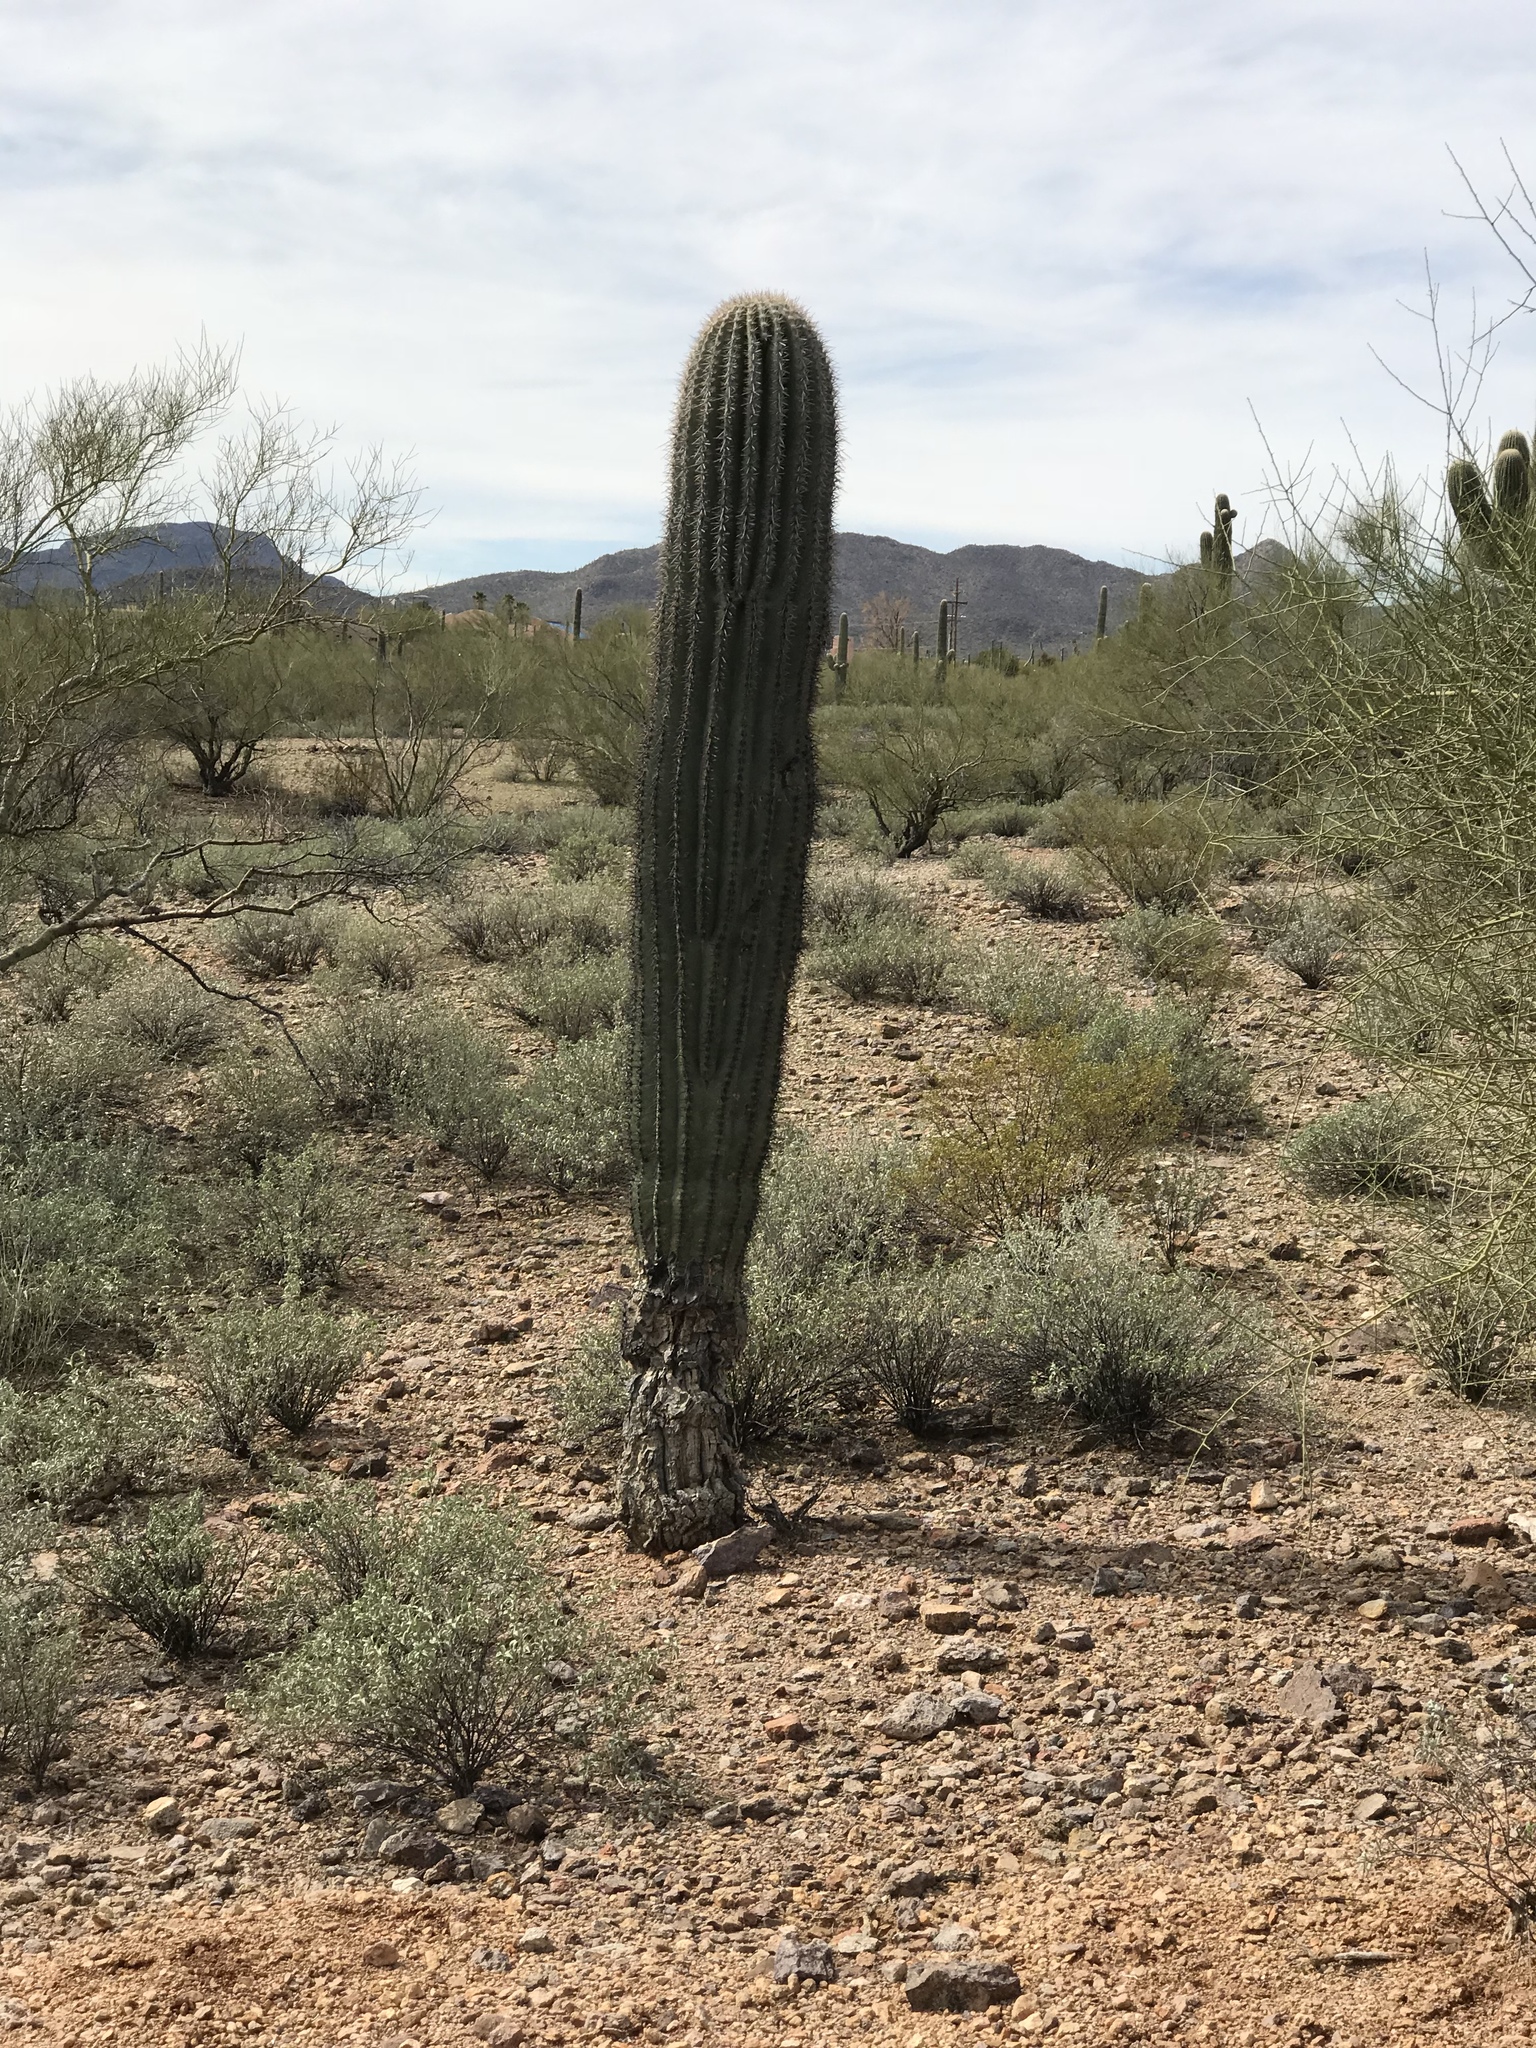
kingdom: Plantae
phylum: Tracheophyta
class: Magnoliopsida
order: Caryophyllales
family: Cactaceae
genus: Carnegiea
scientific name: Carnegiea gigantea
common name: Saguaro
